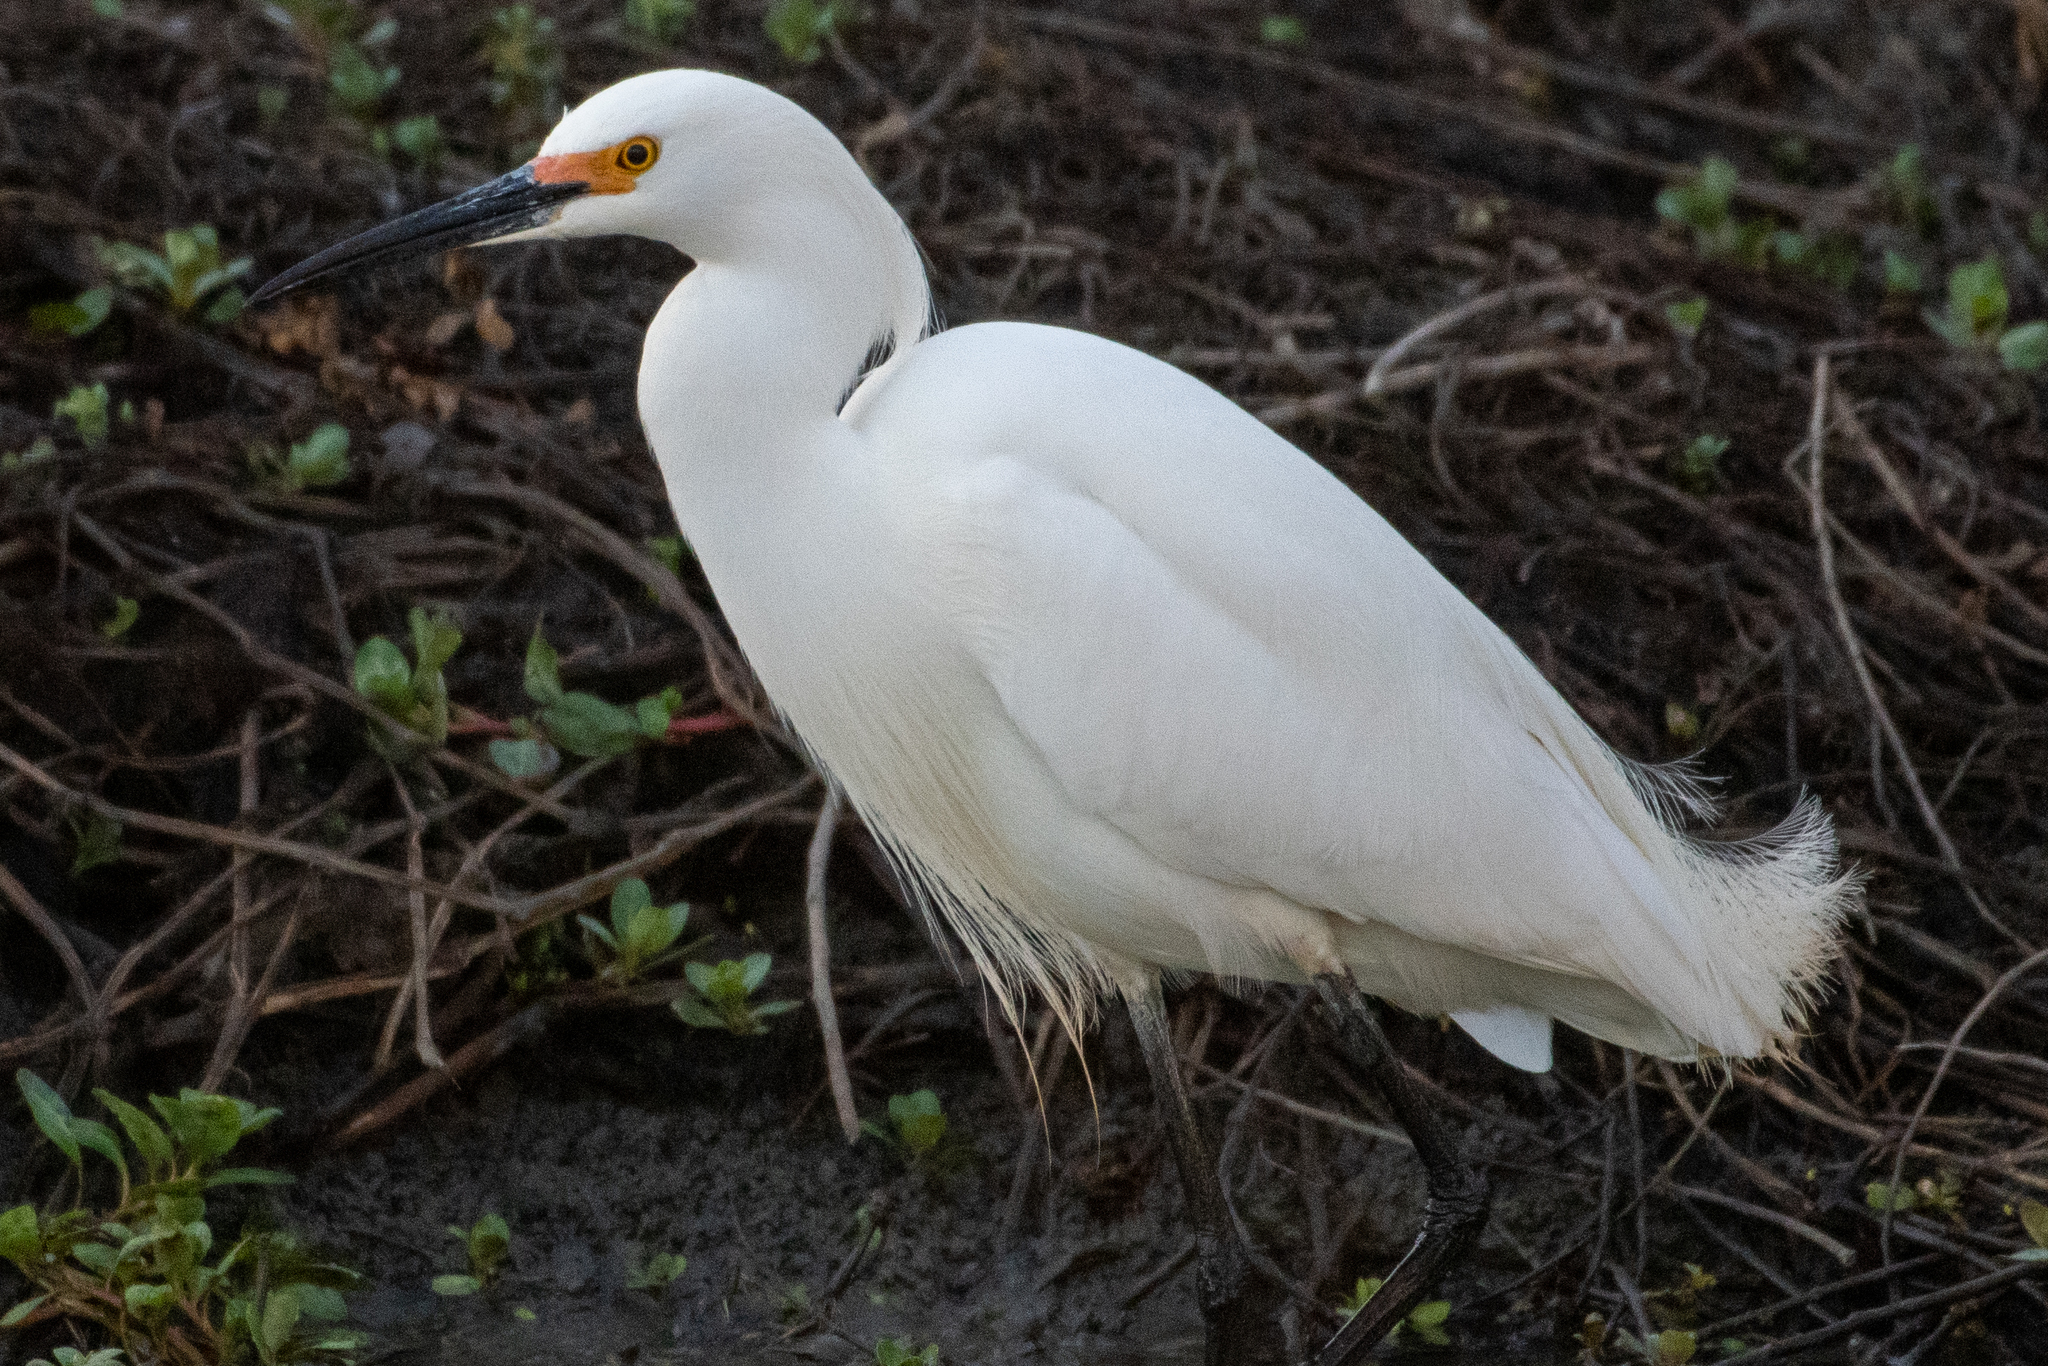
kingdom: Animalia
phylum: Chordata
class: Aves
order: Pelecaniformes
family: Ardeidae
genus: Egretta
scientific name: Egretta thula
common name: Snowy egret
